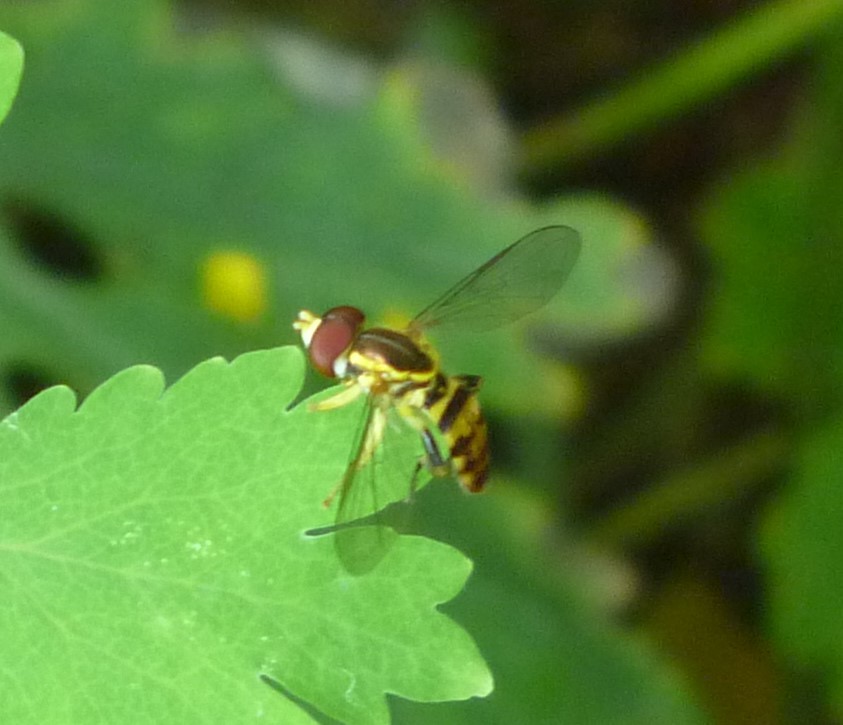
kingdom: Animalia
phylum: Arthropoda
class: Insecta
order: Diptera
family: Syrphidae
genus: Toxomerus
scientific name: Toxomerus geminatus
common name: Eastern calligrapher
